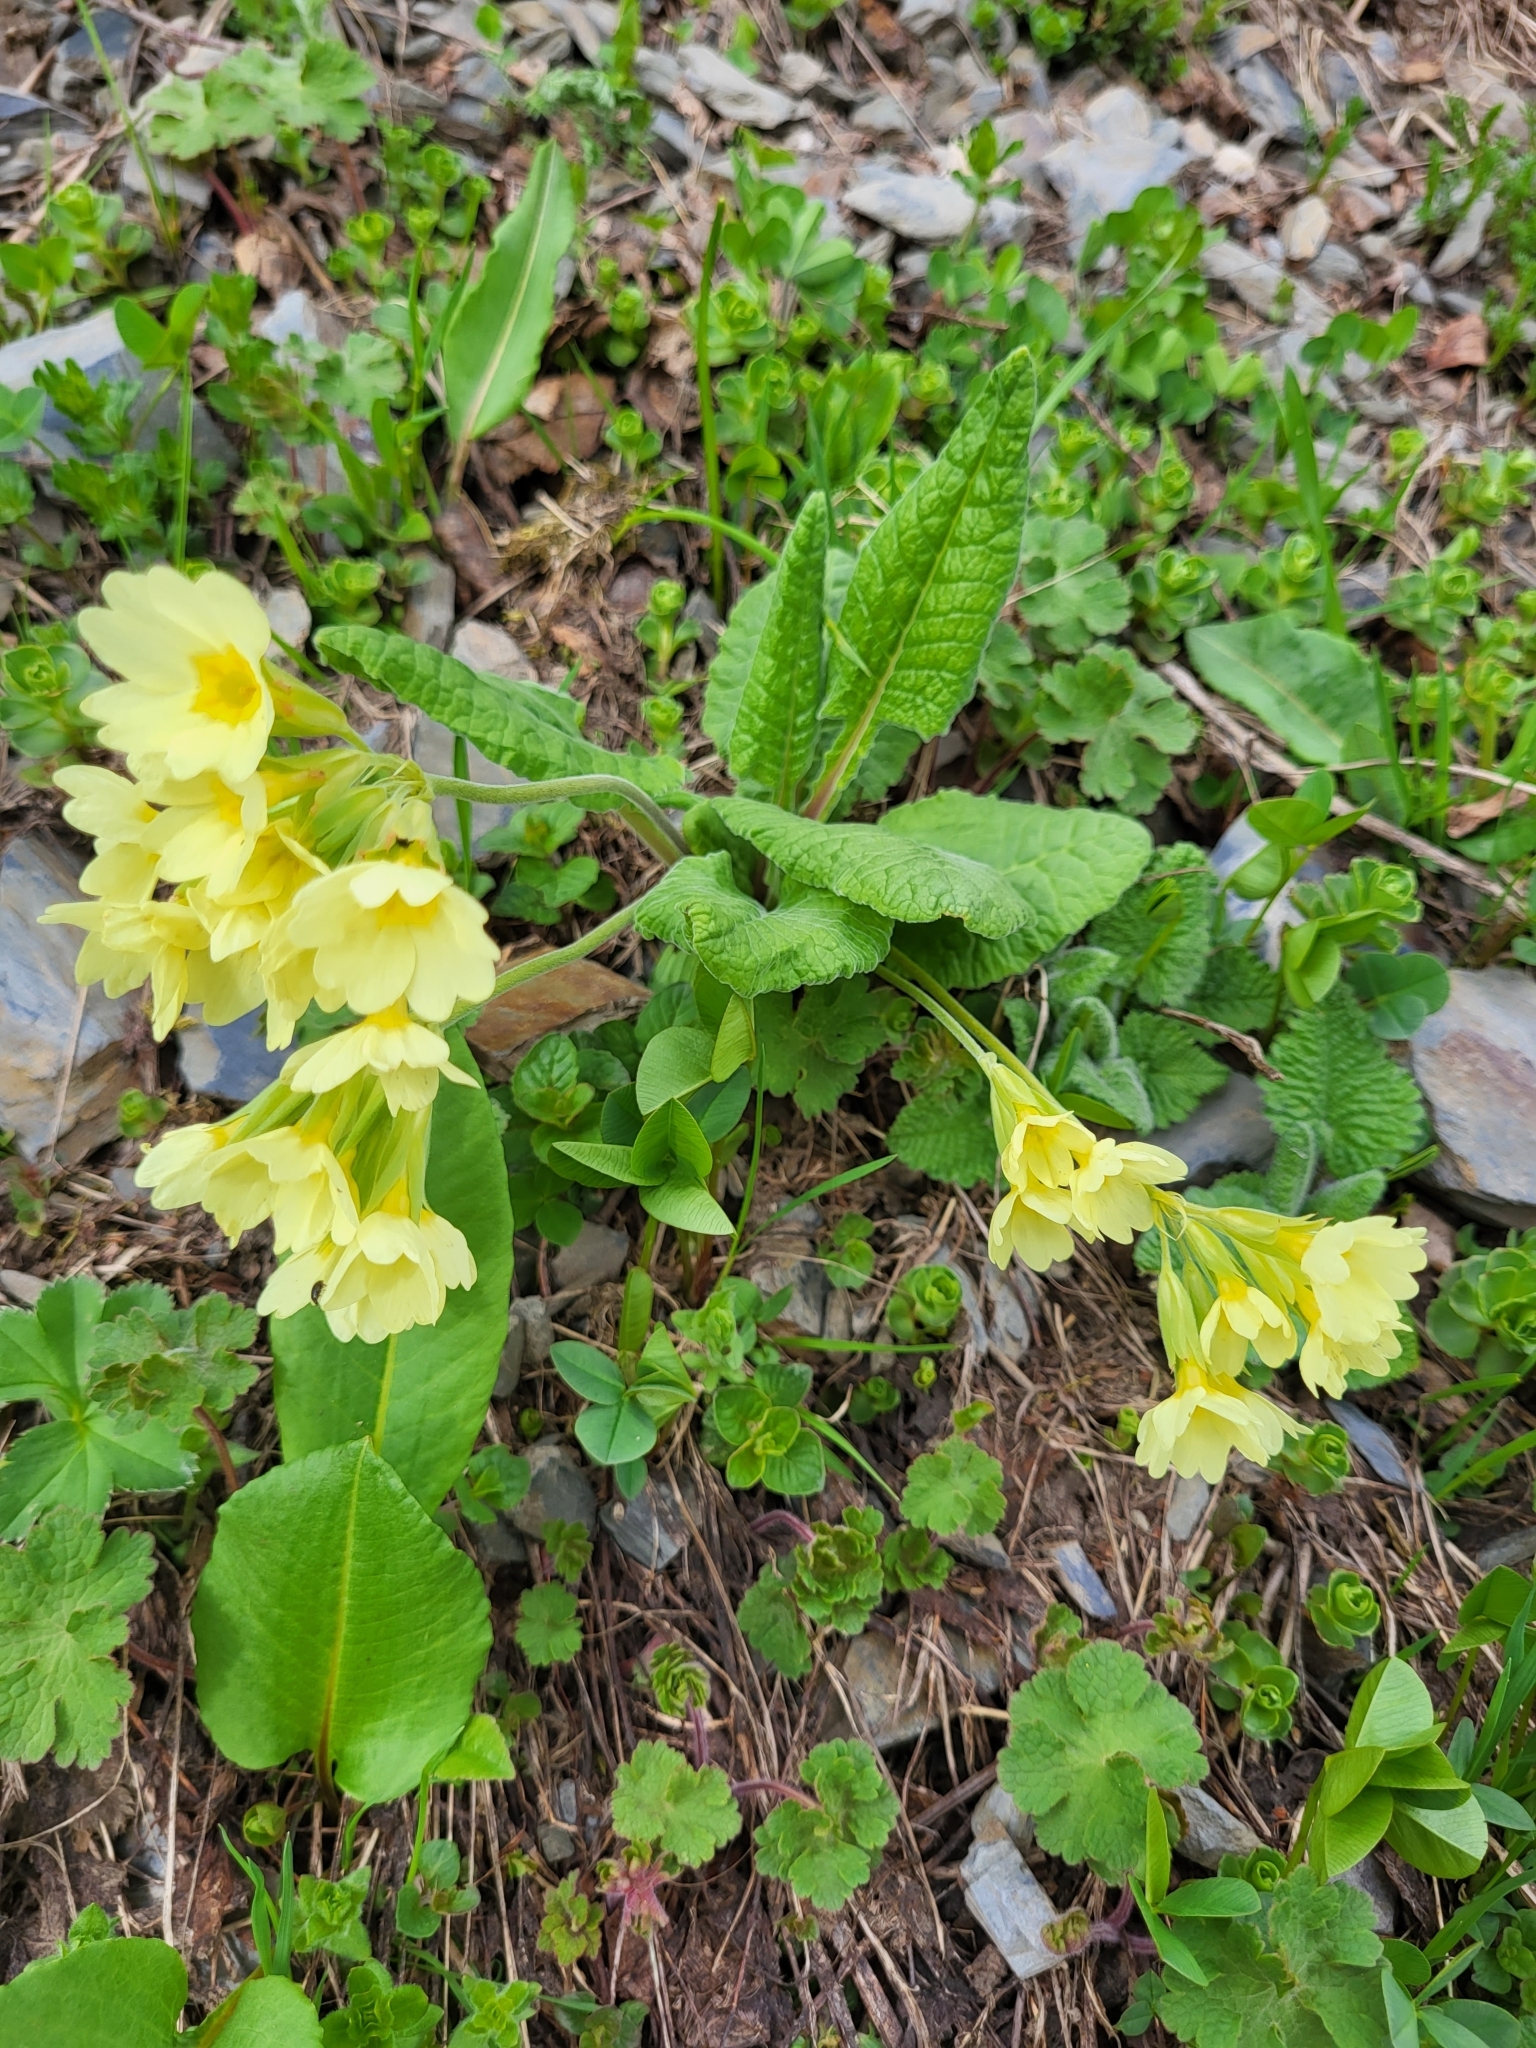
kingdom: Plantae
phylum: Tracheophyta
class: Magnoliopsida
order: Ericales
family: Primulaceae
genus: Primula
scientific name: Primula ruprechtii
